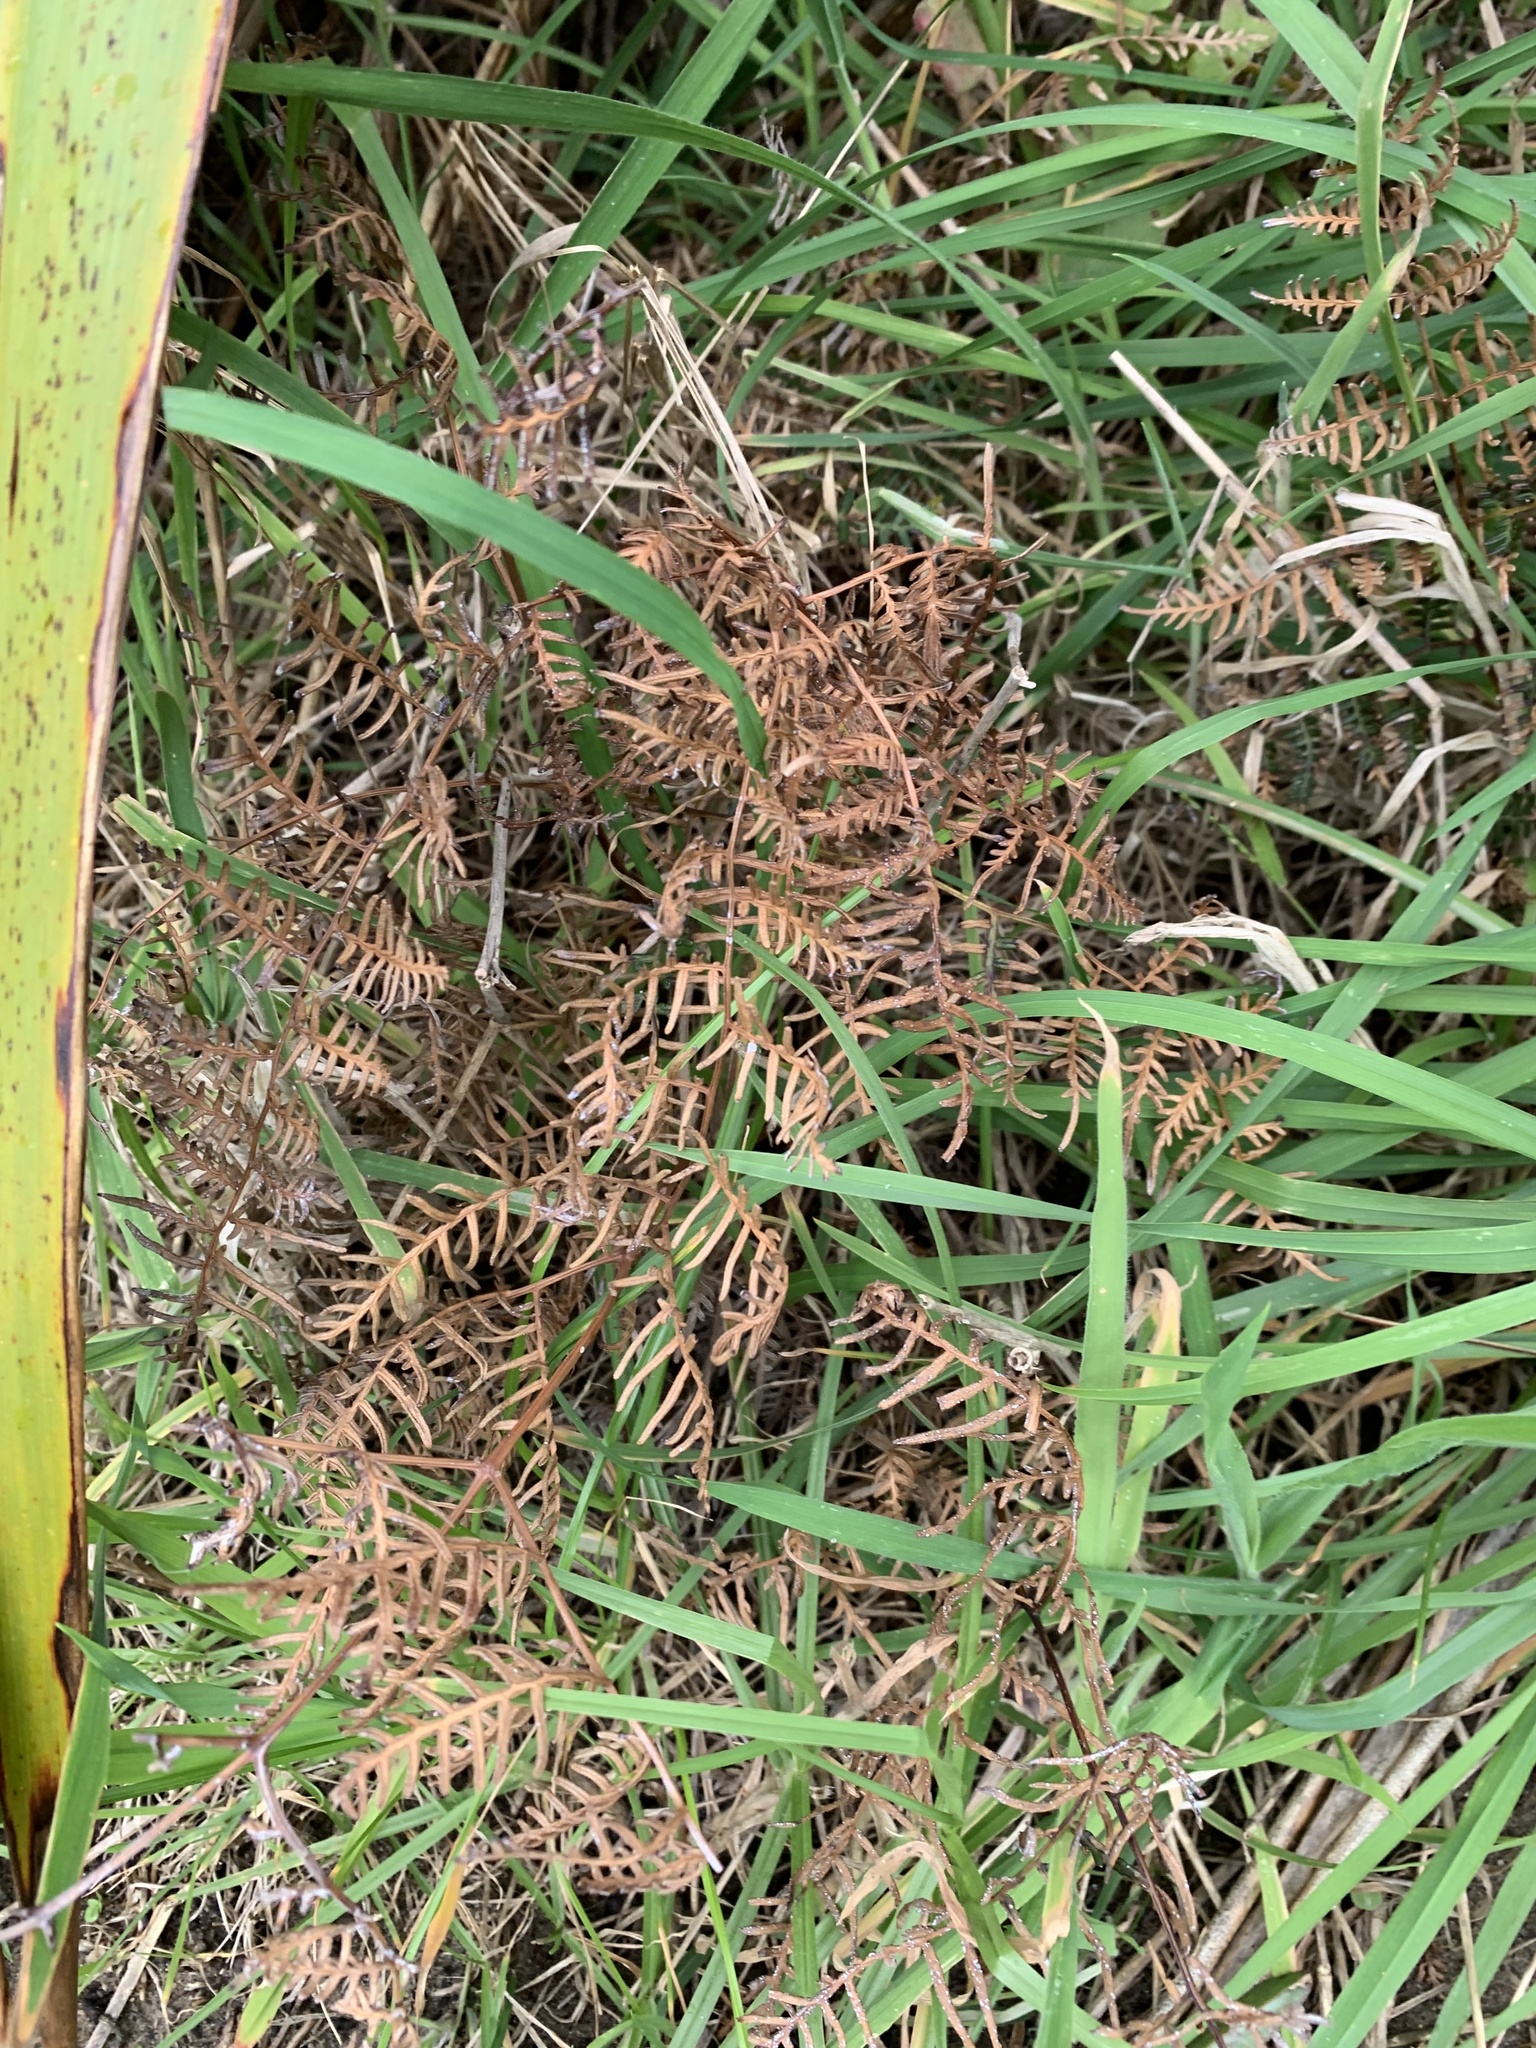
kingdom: Plantae
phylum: Tracheophyta
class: Polypodiopsida
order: Polypodiales
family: Dennstaedtiaceae
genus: Pteridium
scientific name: Pteridium esculentum
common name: Bracken fern
